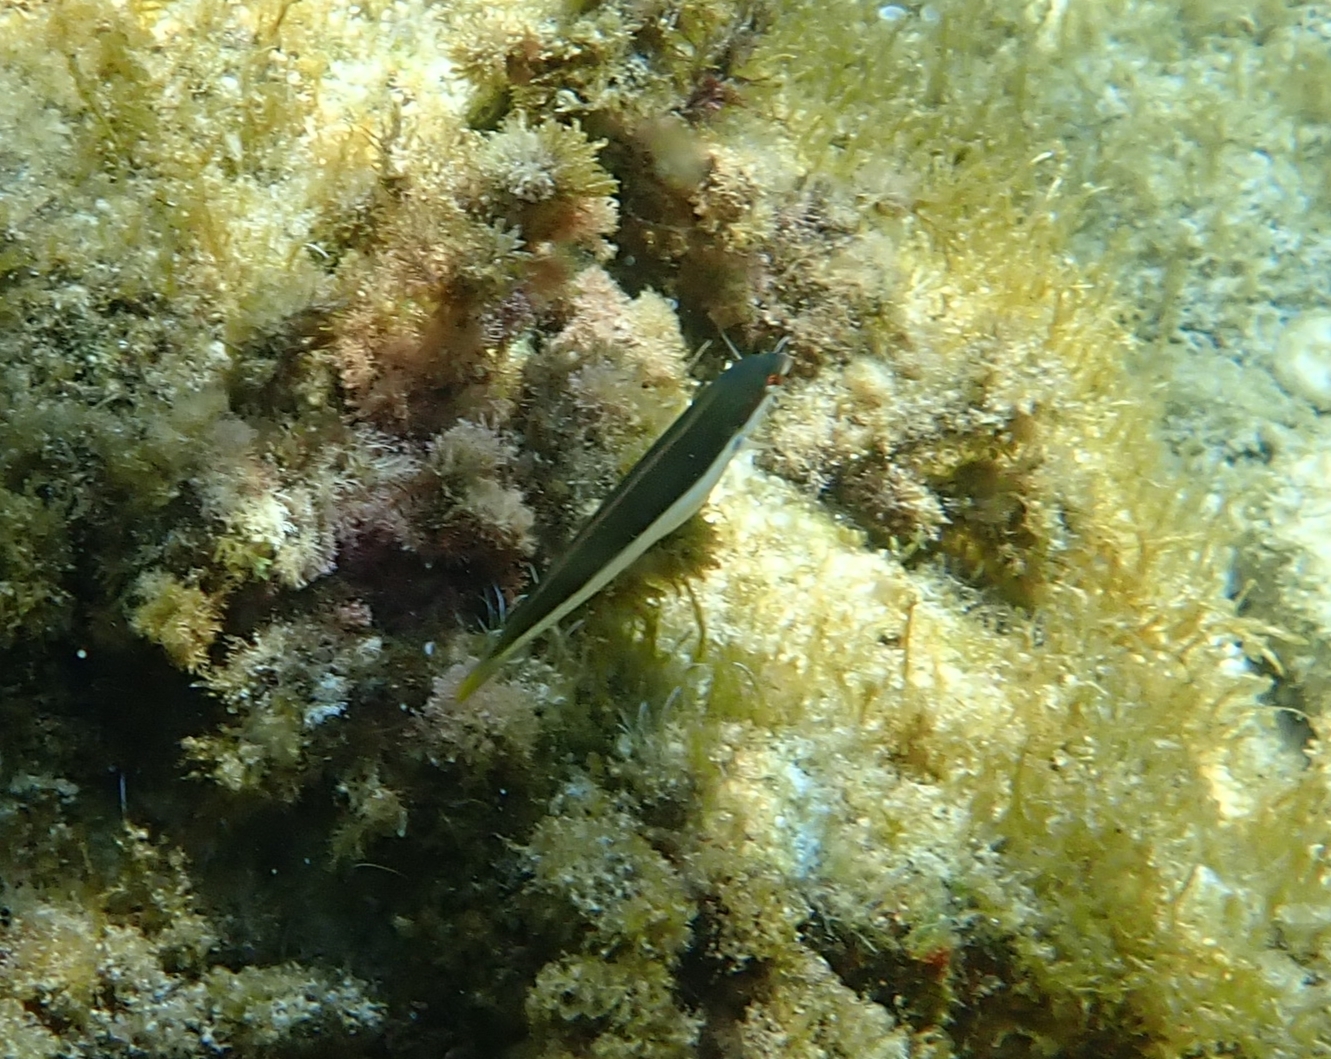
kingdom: Animalia
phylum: Chordata
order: Perciformes
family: Labridae
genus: Coris
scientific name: Coris julis
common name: Rainbow wrasse
